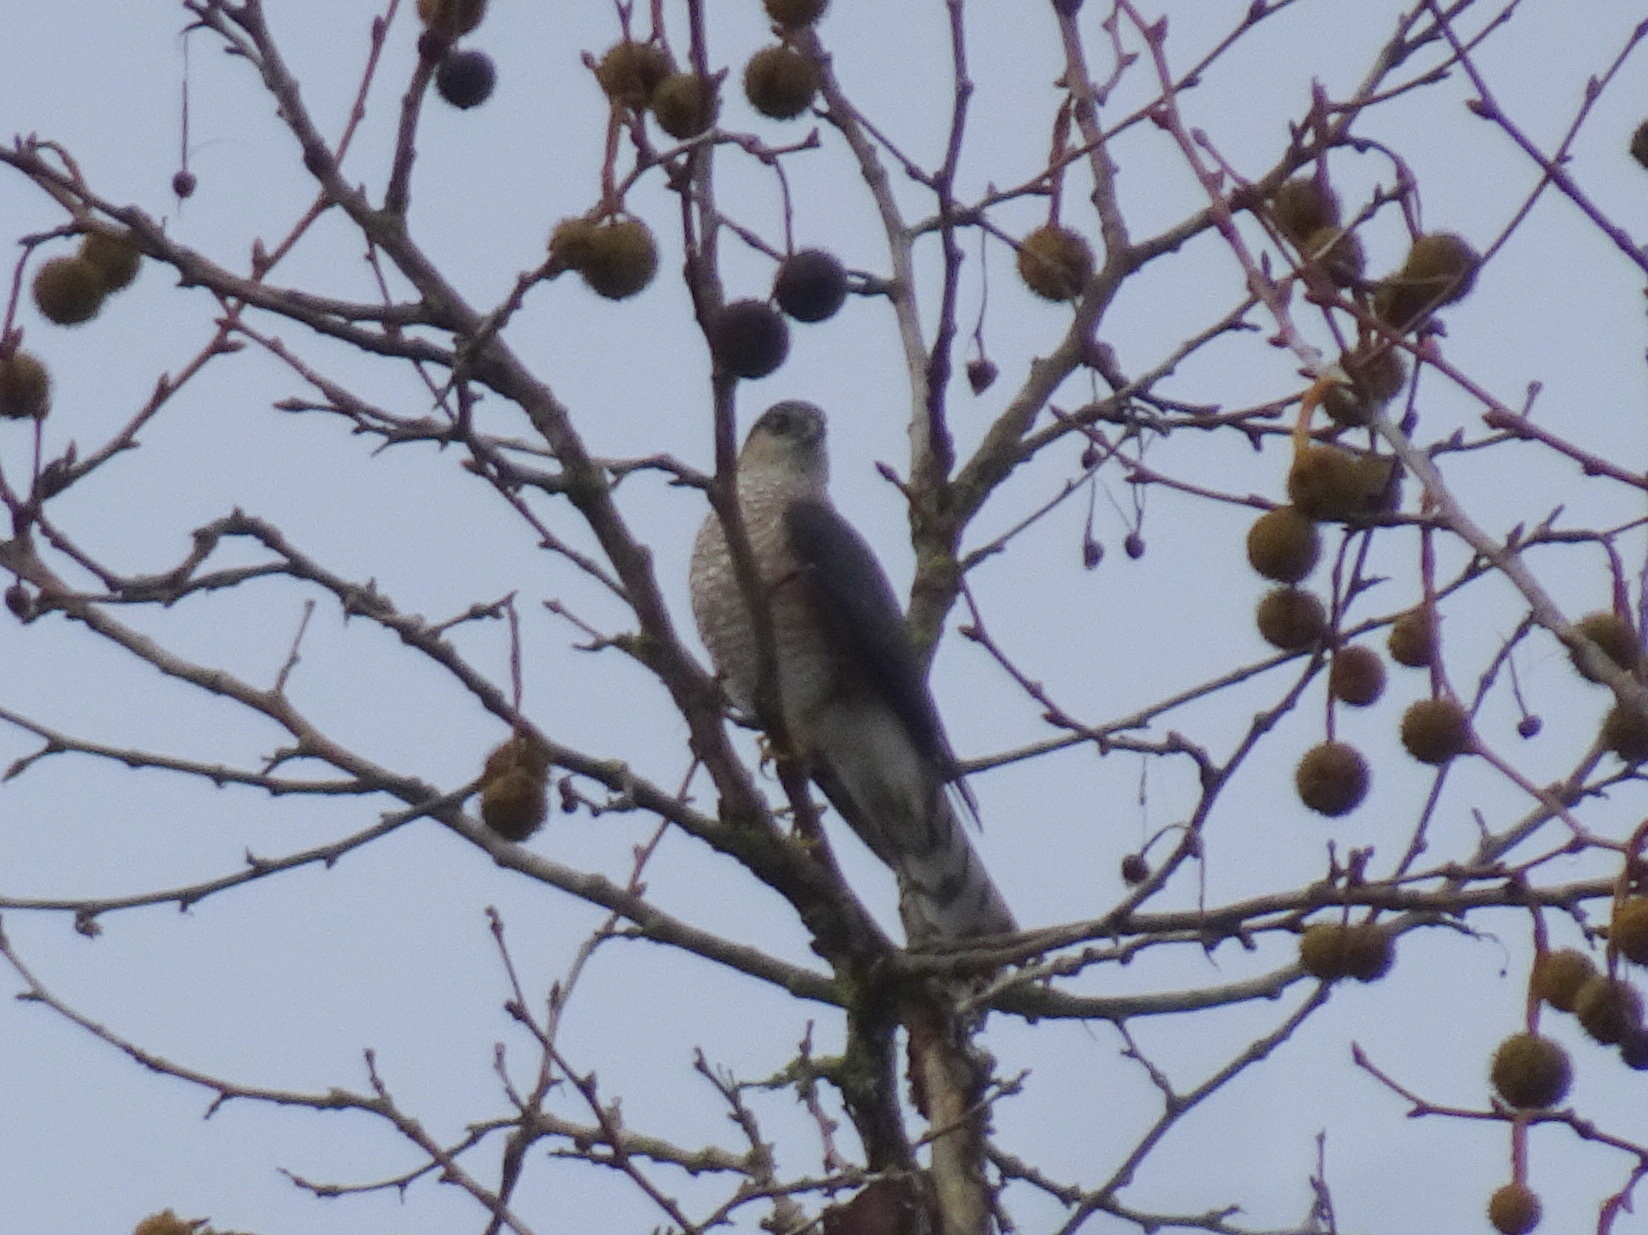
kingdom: Animalia
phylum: Chordata
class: Aves
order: Accipitriformes
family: Accipitridae
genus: Accipiter
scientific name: Accipiter striatus
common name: Sharp-shinned hawk
